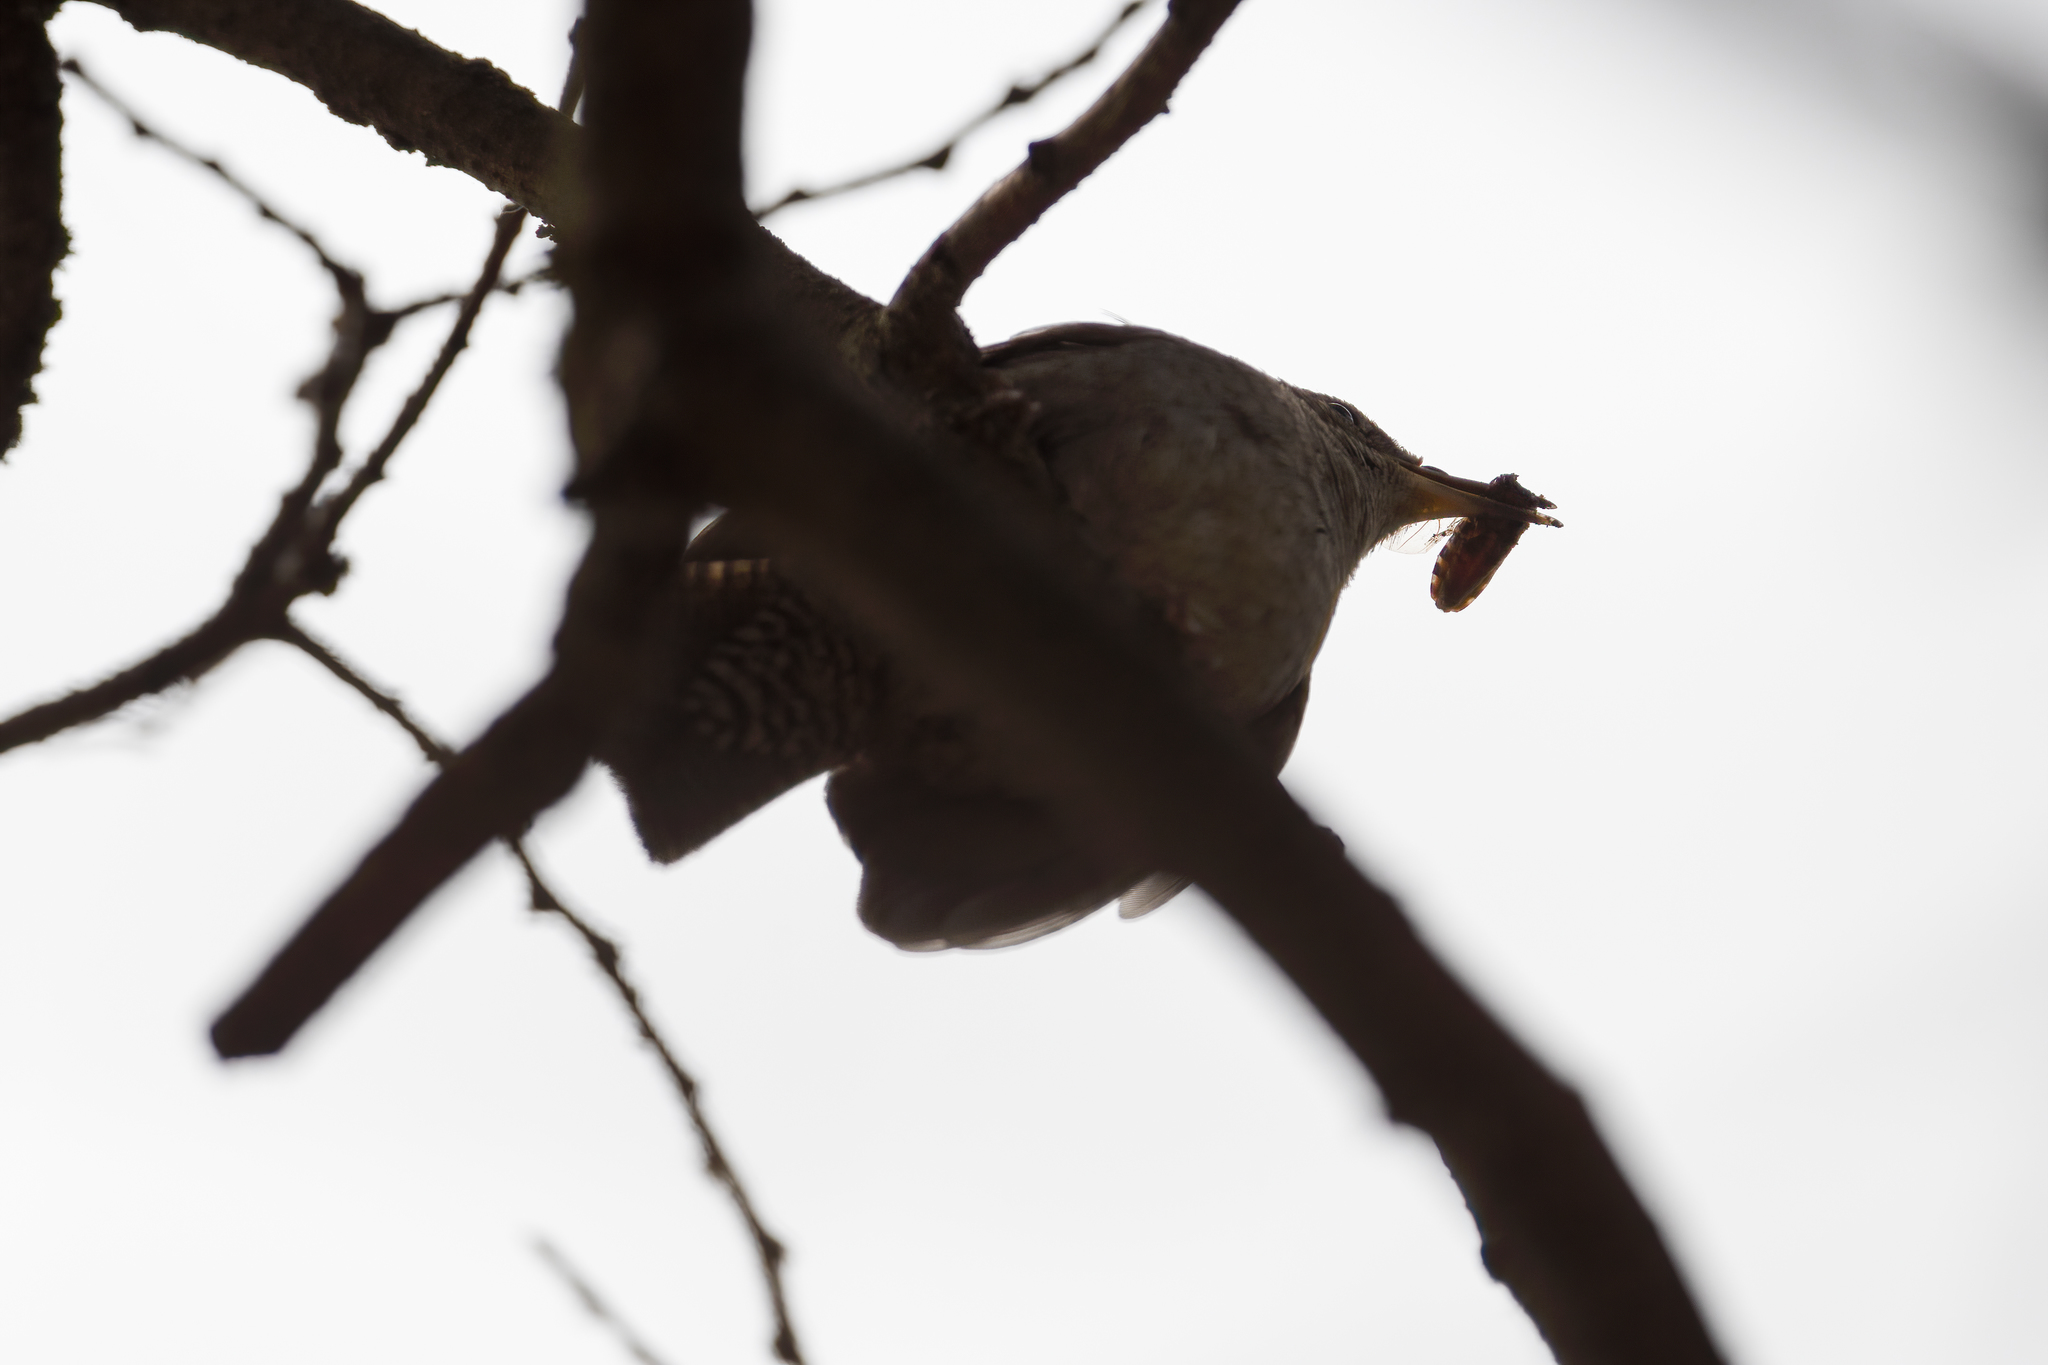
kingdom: Animalia
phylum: Chordata
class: Aves
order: Passeriformes
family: Troglodytidae
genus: Troglodytes
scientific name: Troglodytes aedon
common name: House wren
